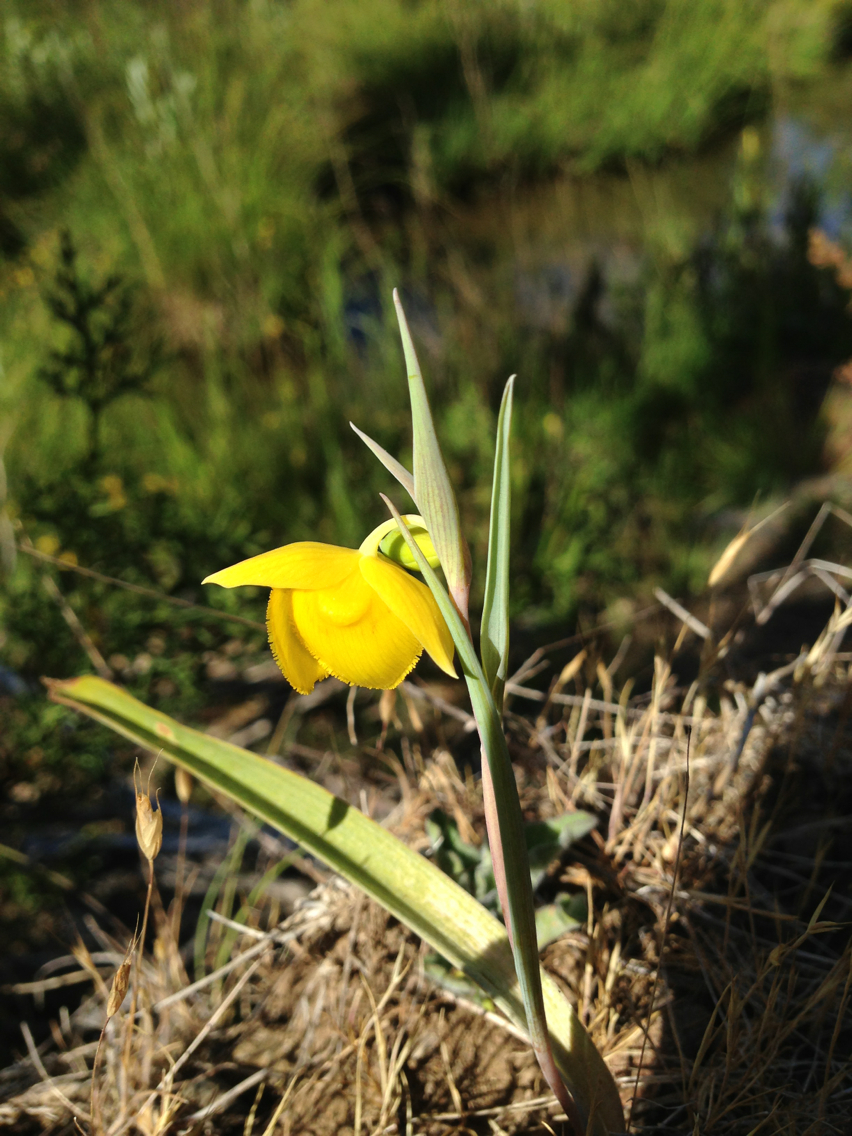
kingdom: Plantae
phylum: Tracheophyta
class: Liliopsida
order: Liliales
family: Liliaceae
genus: Calochortus
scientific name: Calochortus amabilis
